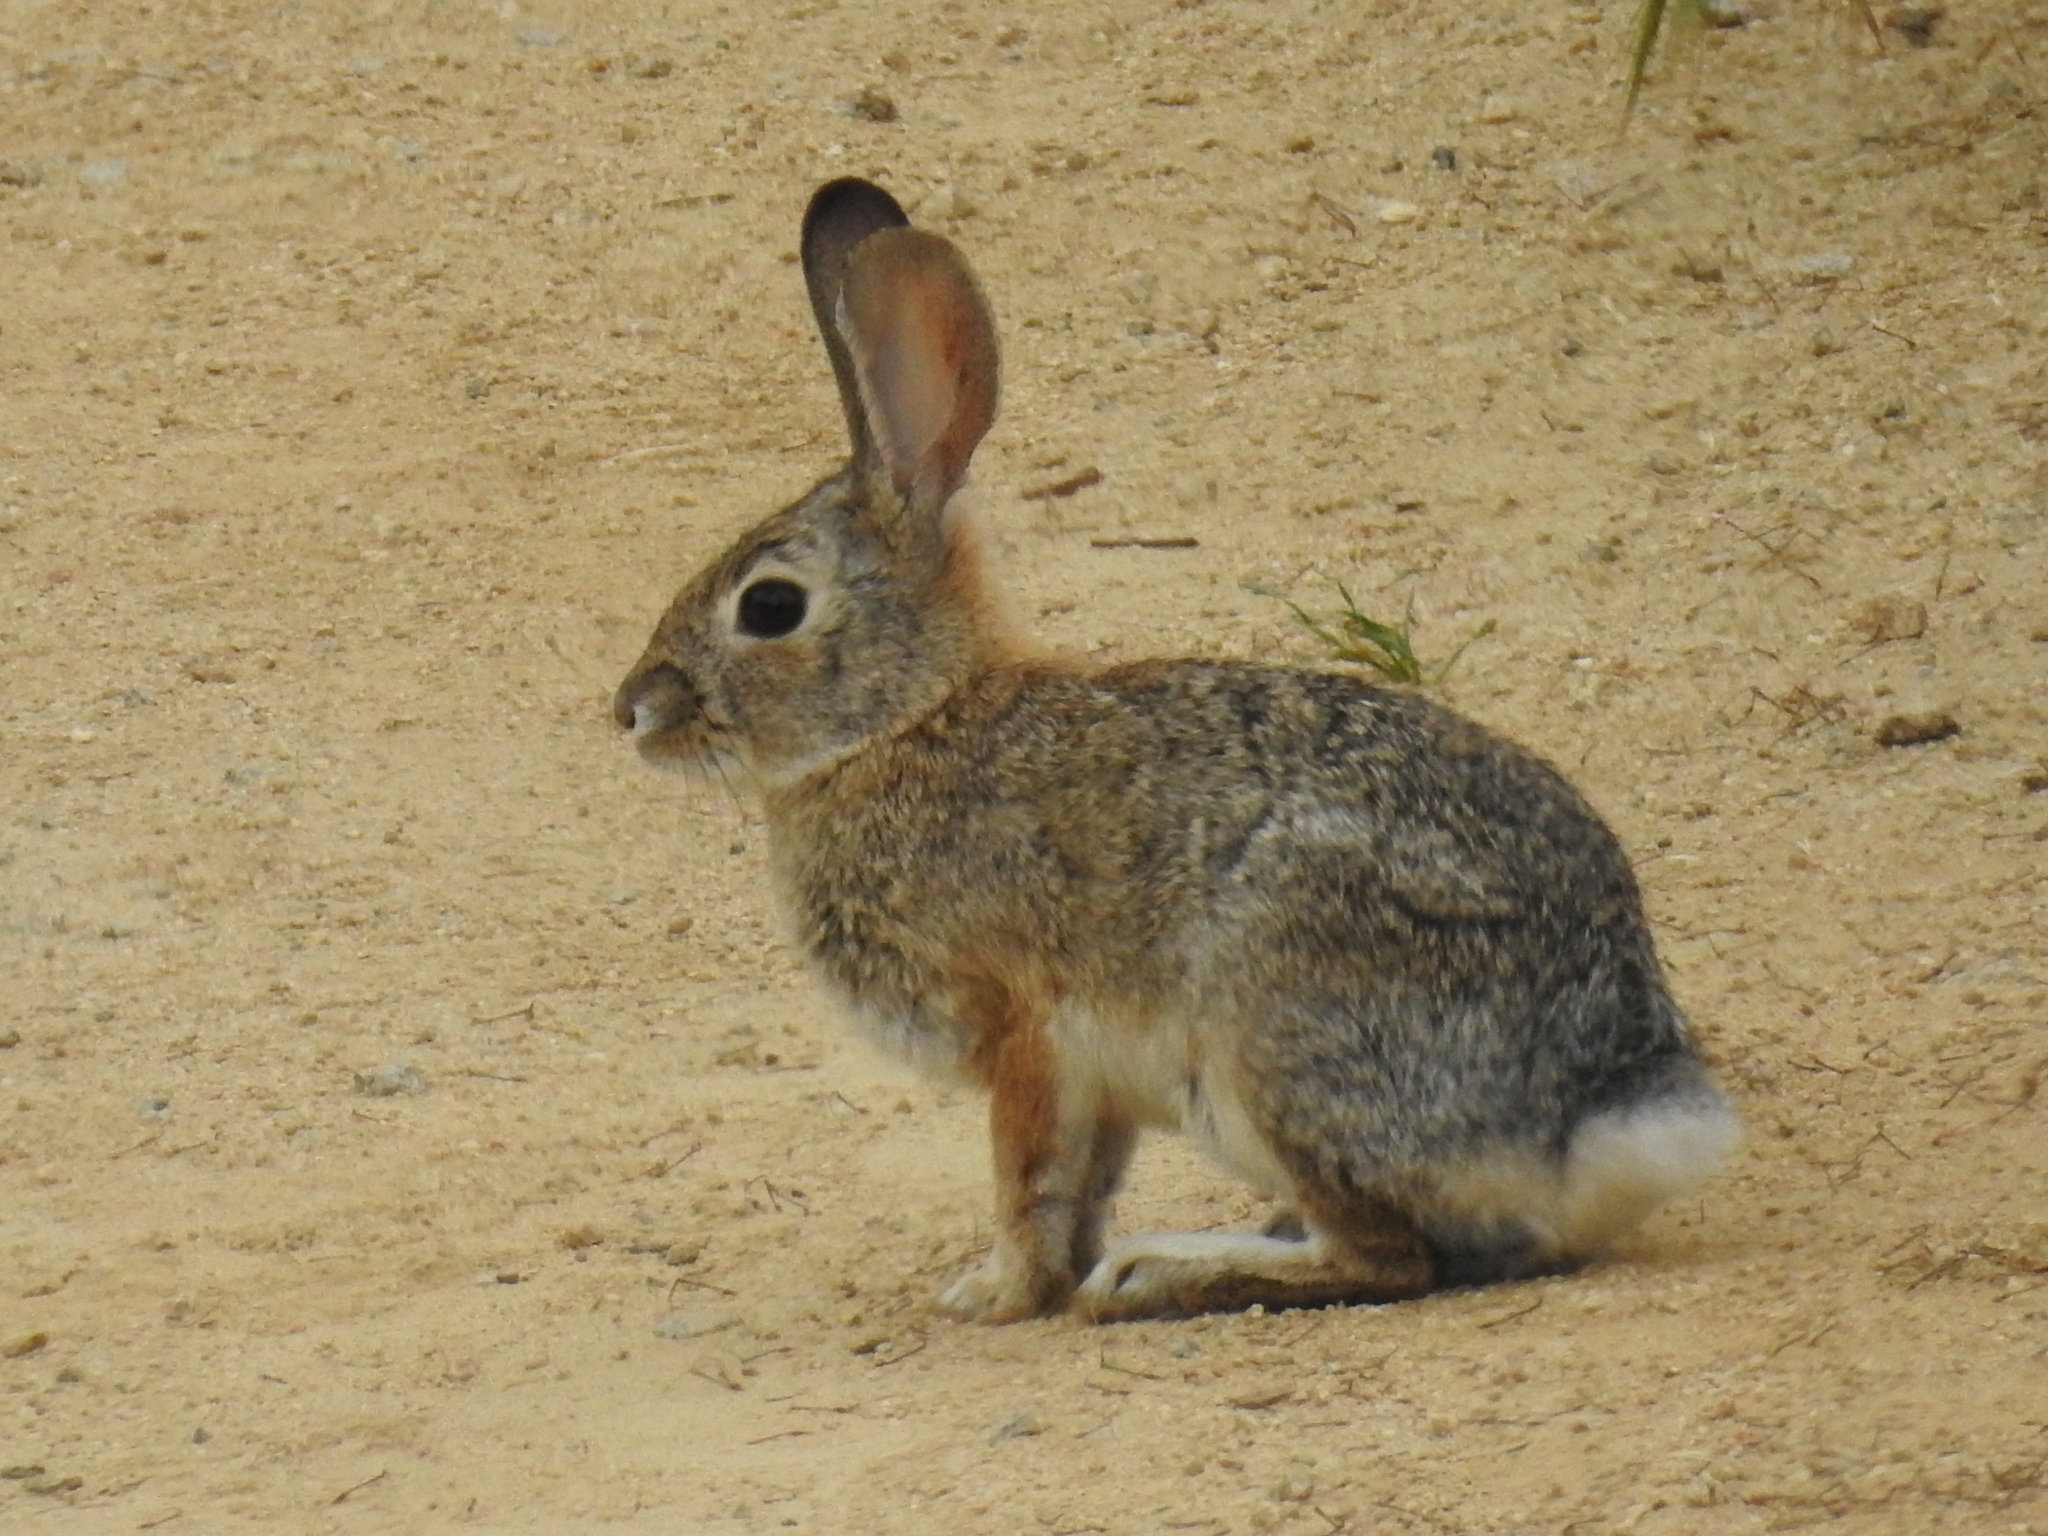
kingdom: Animalia
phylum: Chordata
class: Mammalia
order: Lagomorpha
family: Leporidae
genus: Sylvilagus
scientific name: Sylvilagus audubonii
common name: Desert cottontail
